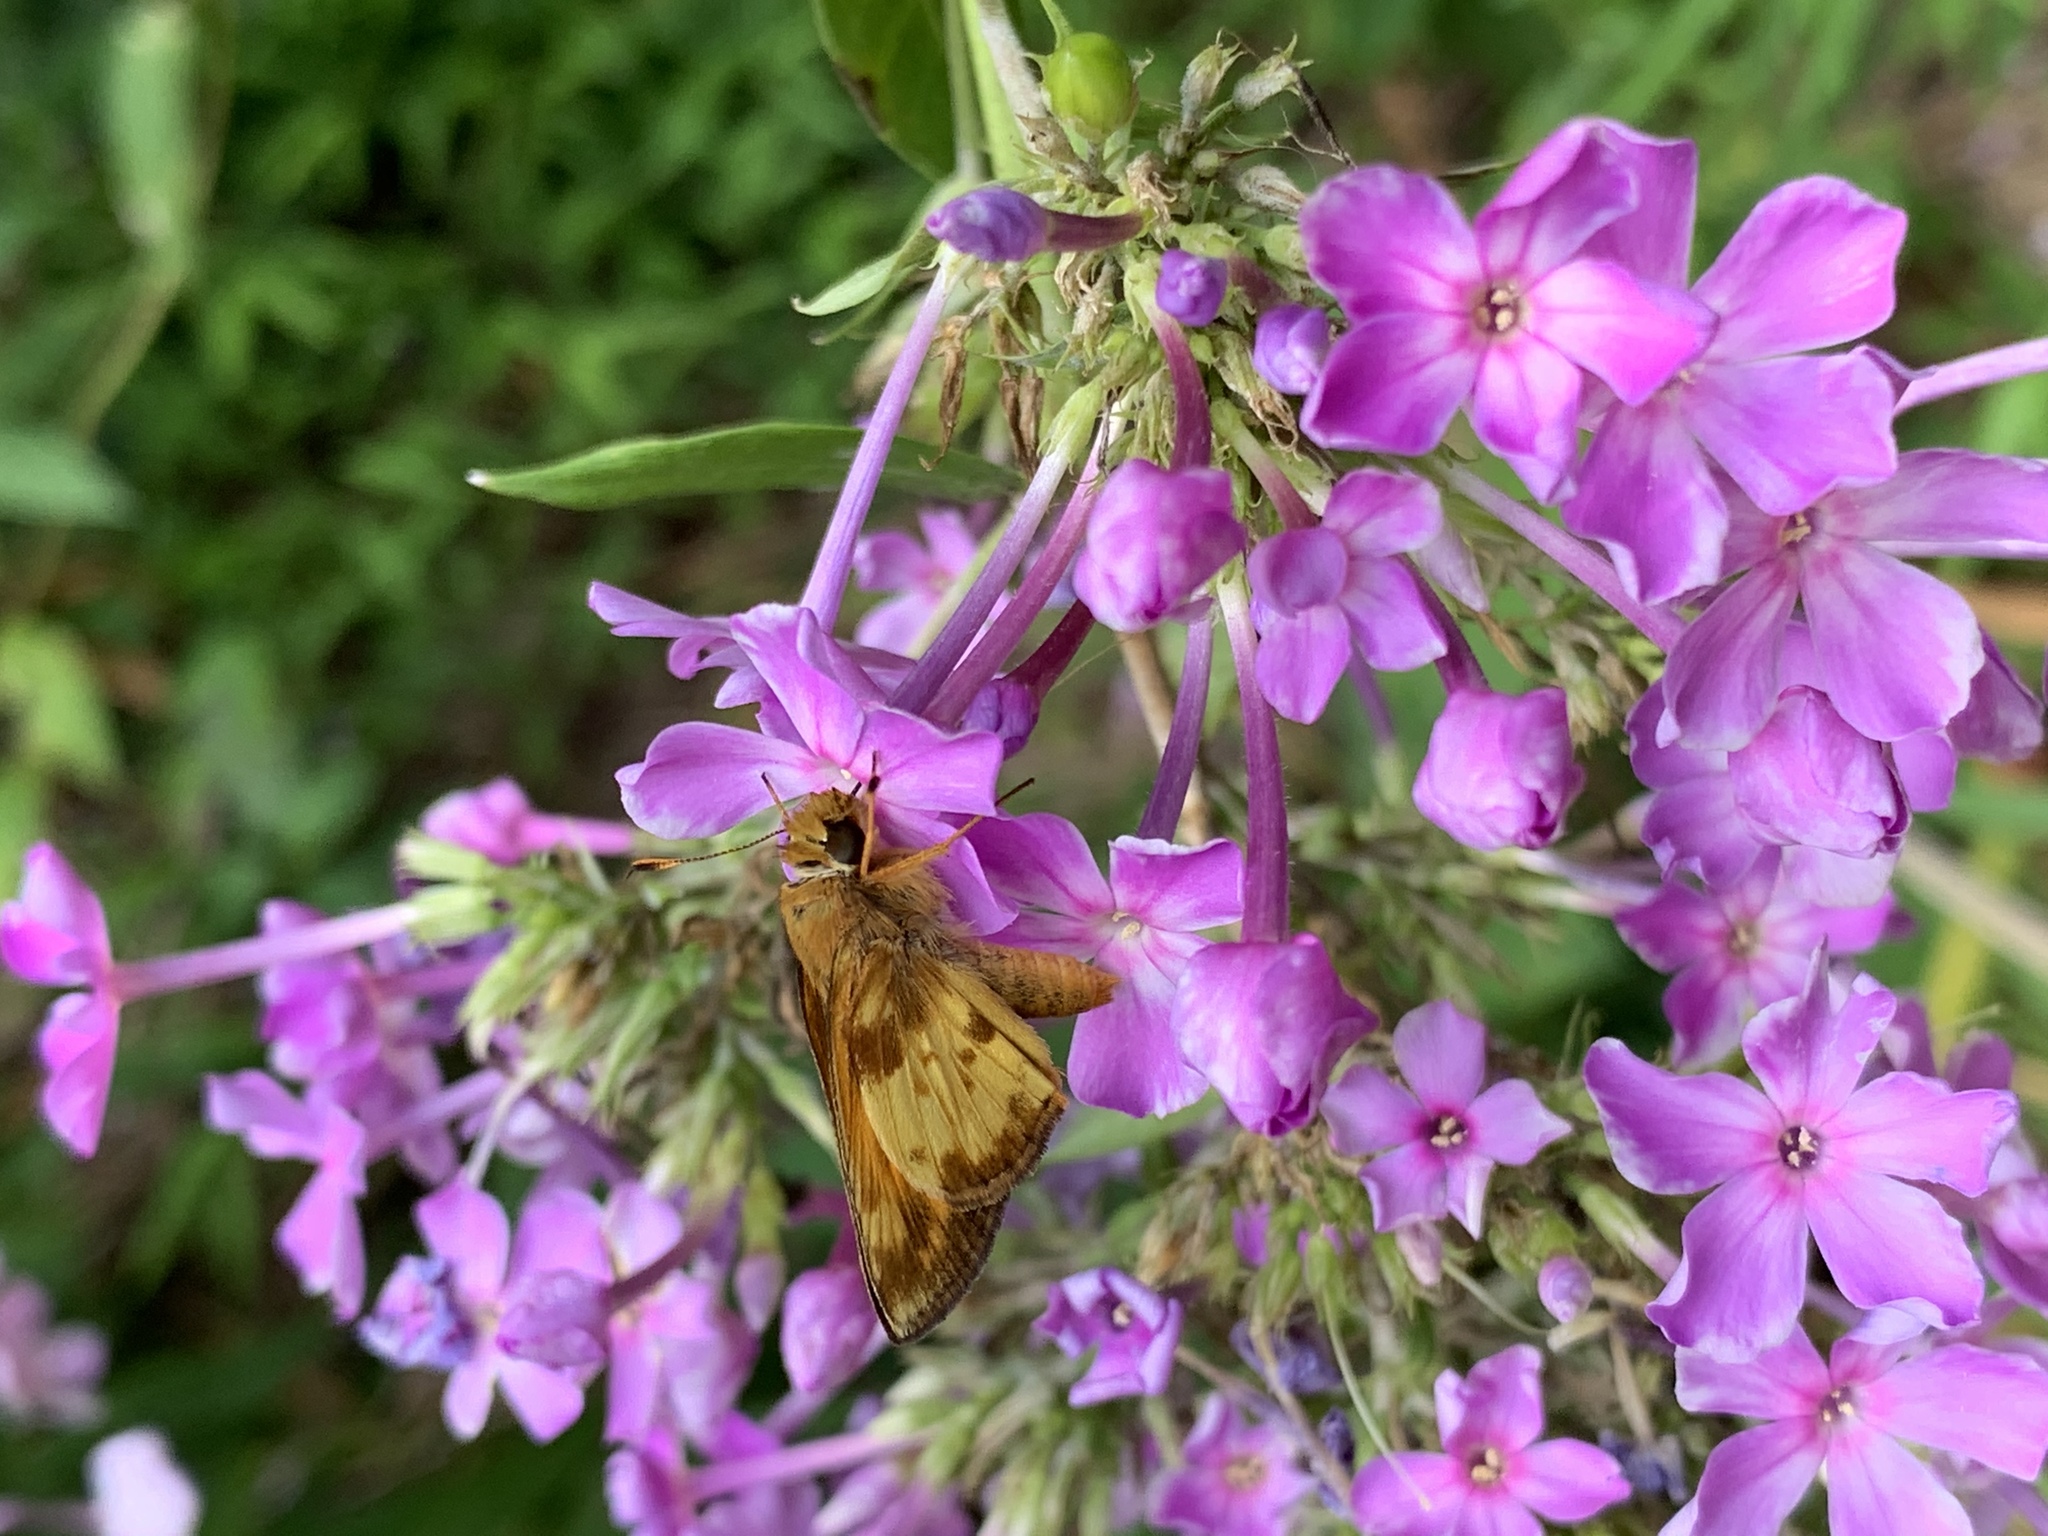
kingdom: Animalia
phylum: Arthropoda
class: Insecta
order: Lepidoptera
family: Hesperiidae
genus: Lon
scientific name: Lon zabulon
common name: Zabulon skipper
